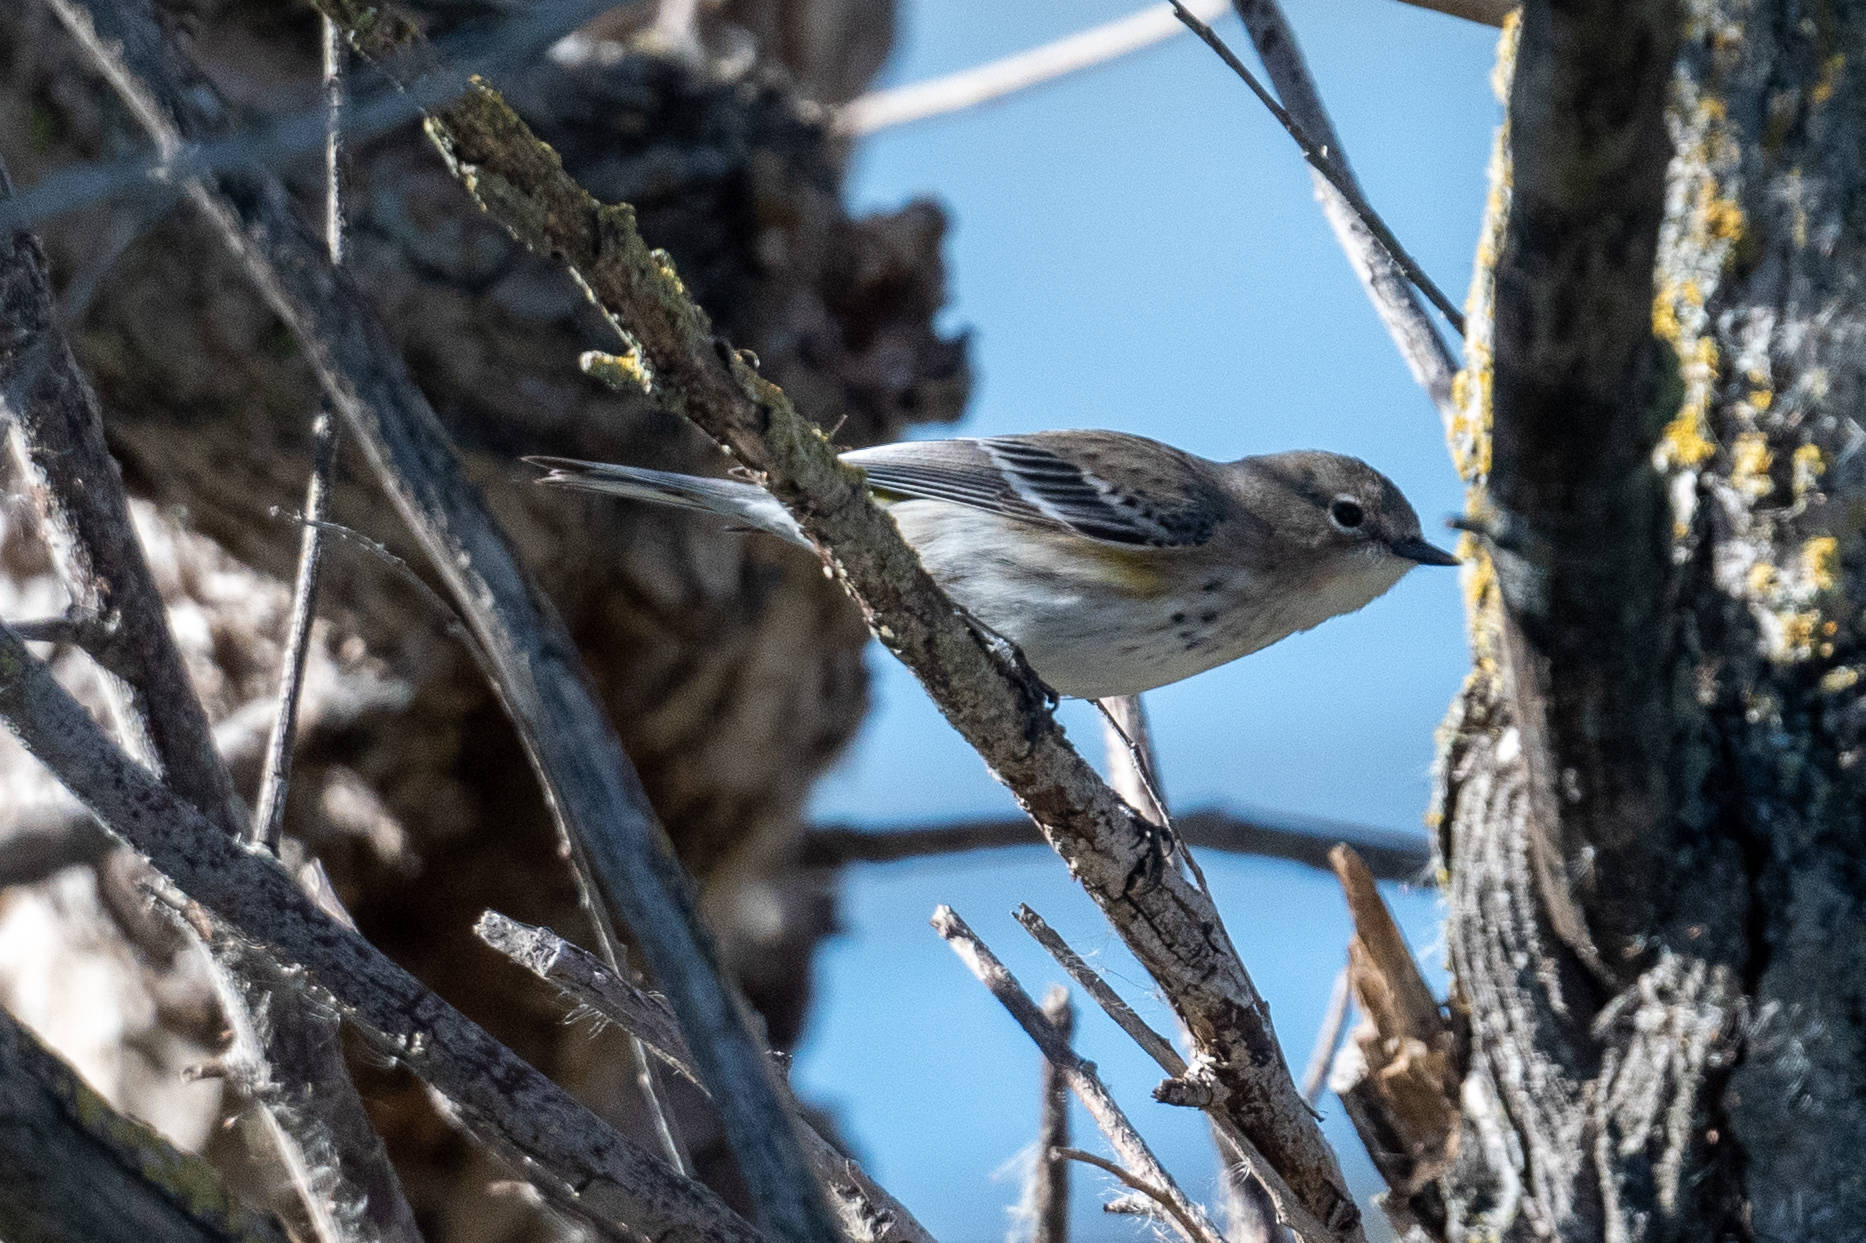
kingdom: Animalia
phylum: Chordata
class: Aves
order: Passeriformes
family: Parulidae
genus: Setophaga
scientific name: Setophaga coronata
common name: Myrtle warbler
